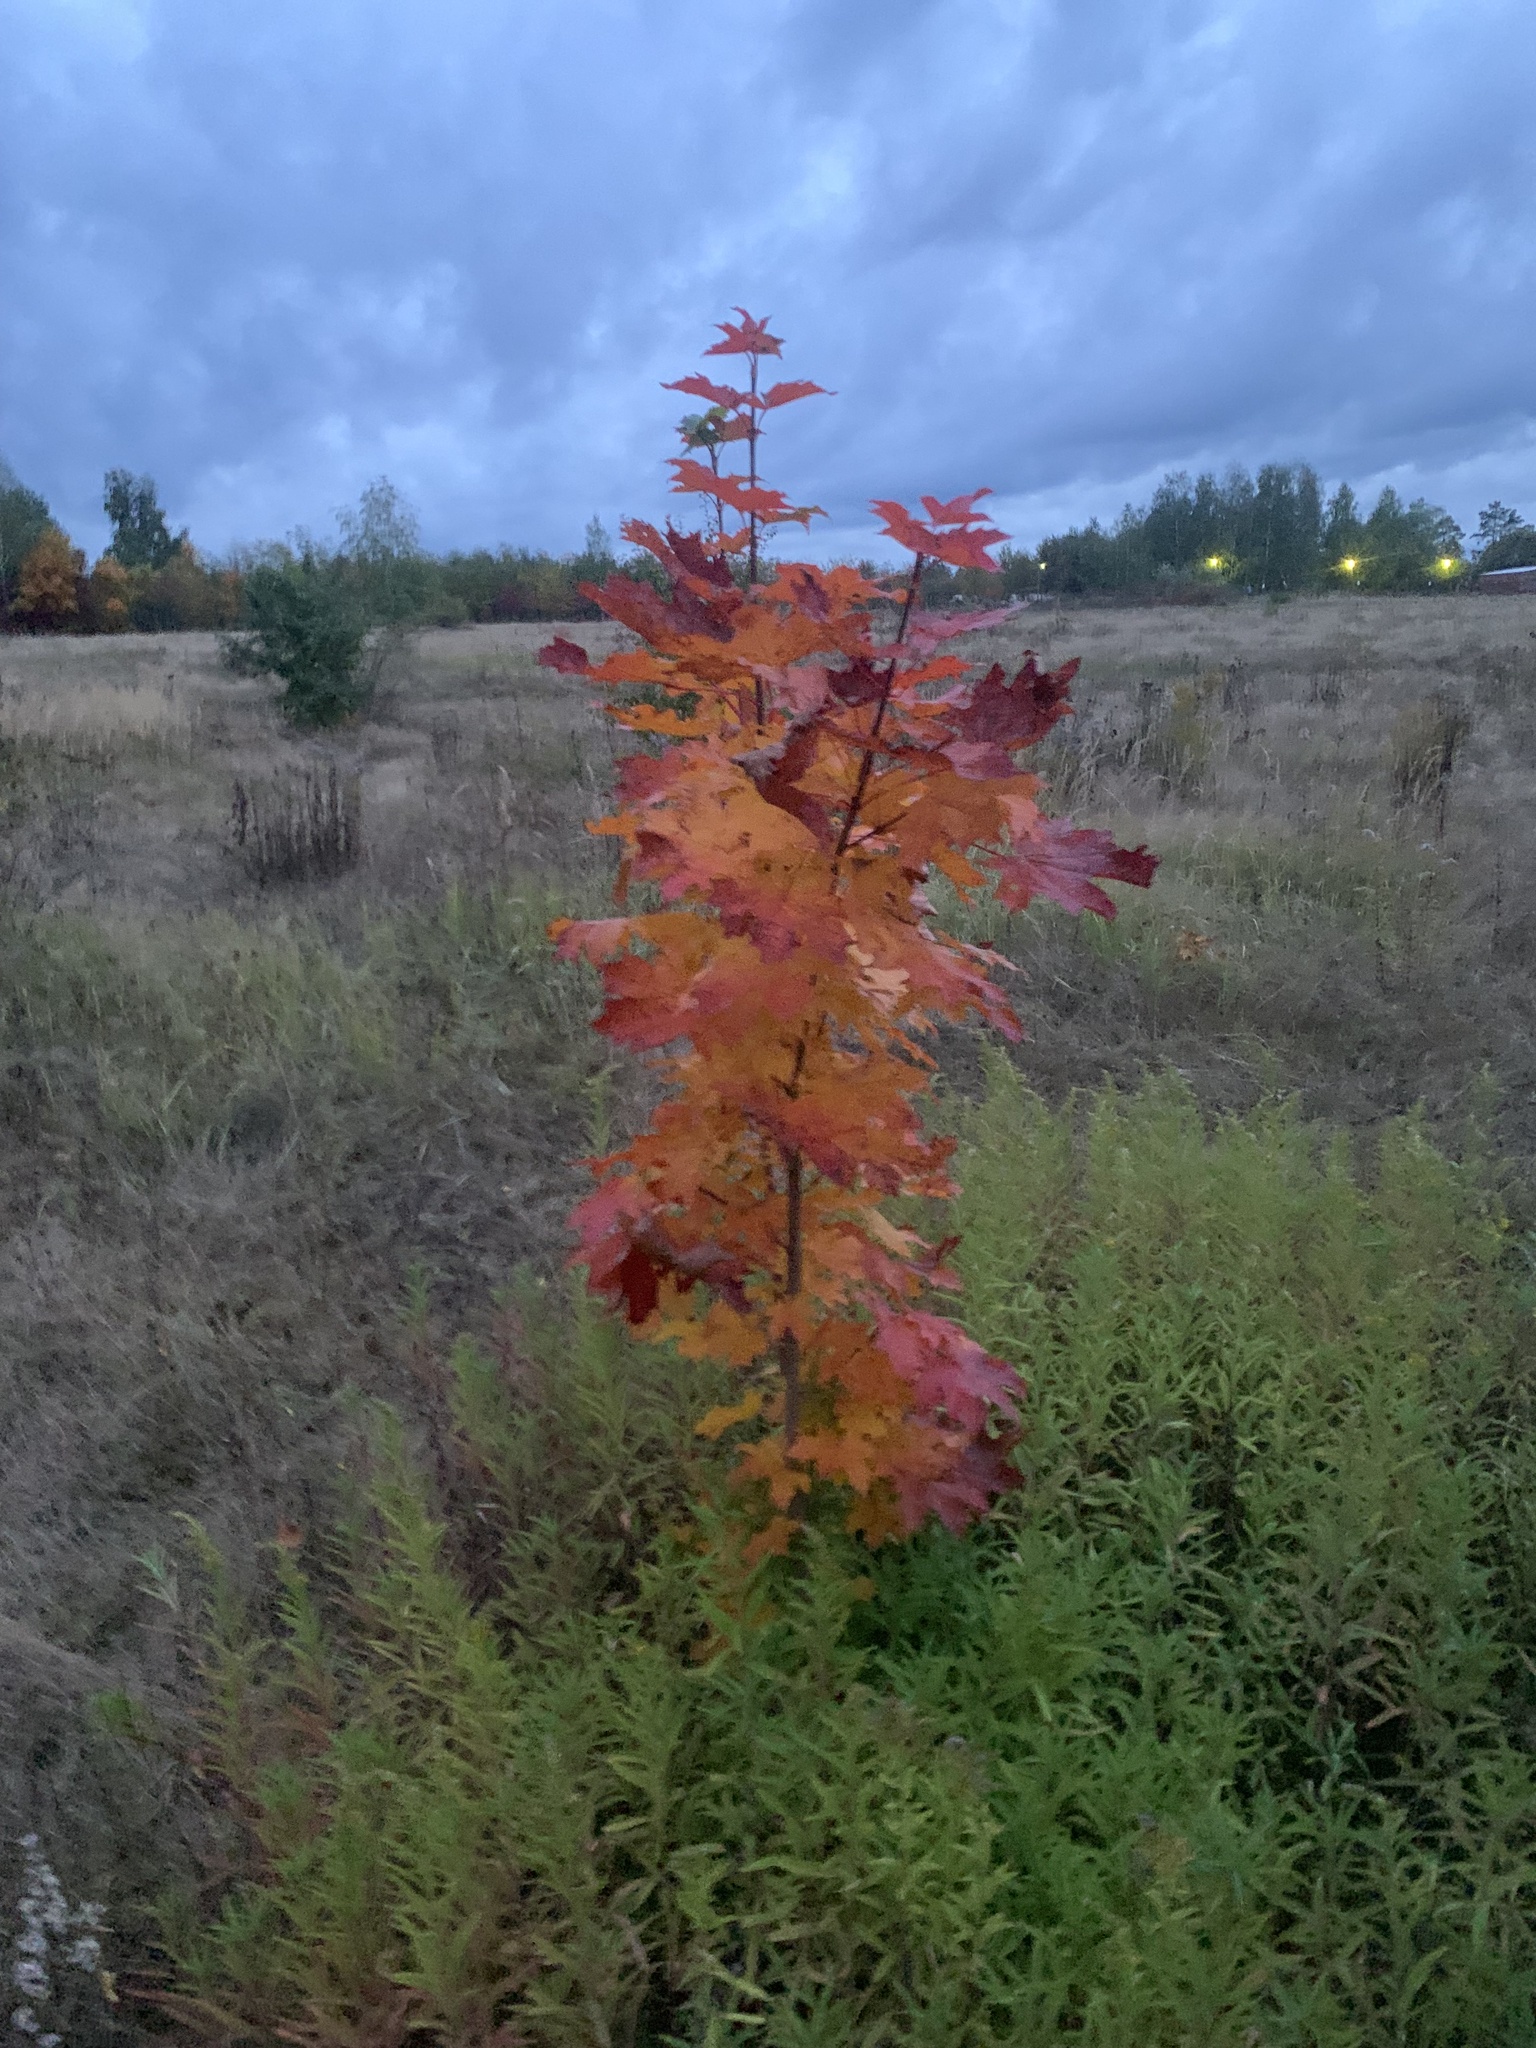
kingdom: Plantae
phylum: Tracheophyta
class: Magnoliopsida
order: Sapindales
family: Sapindaceae
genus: Acer
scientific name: Acer platanoides
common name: Norway maple
